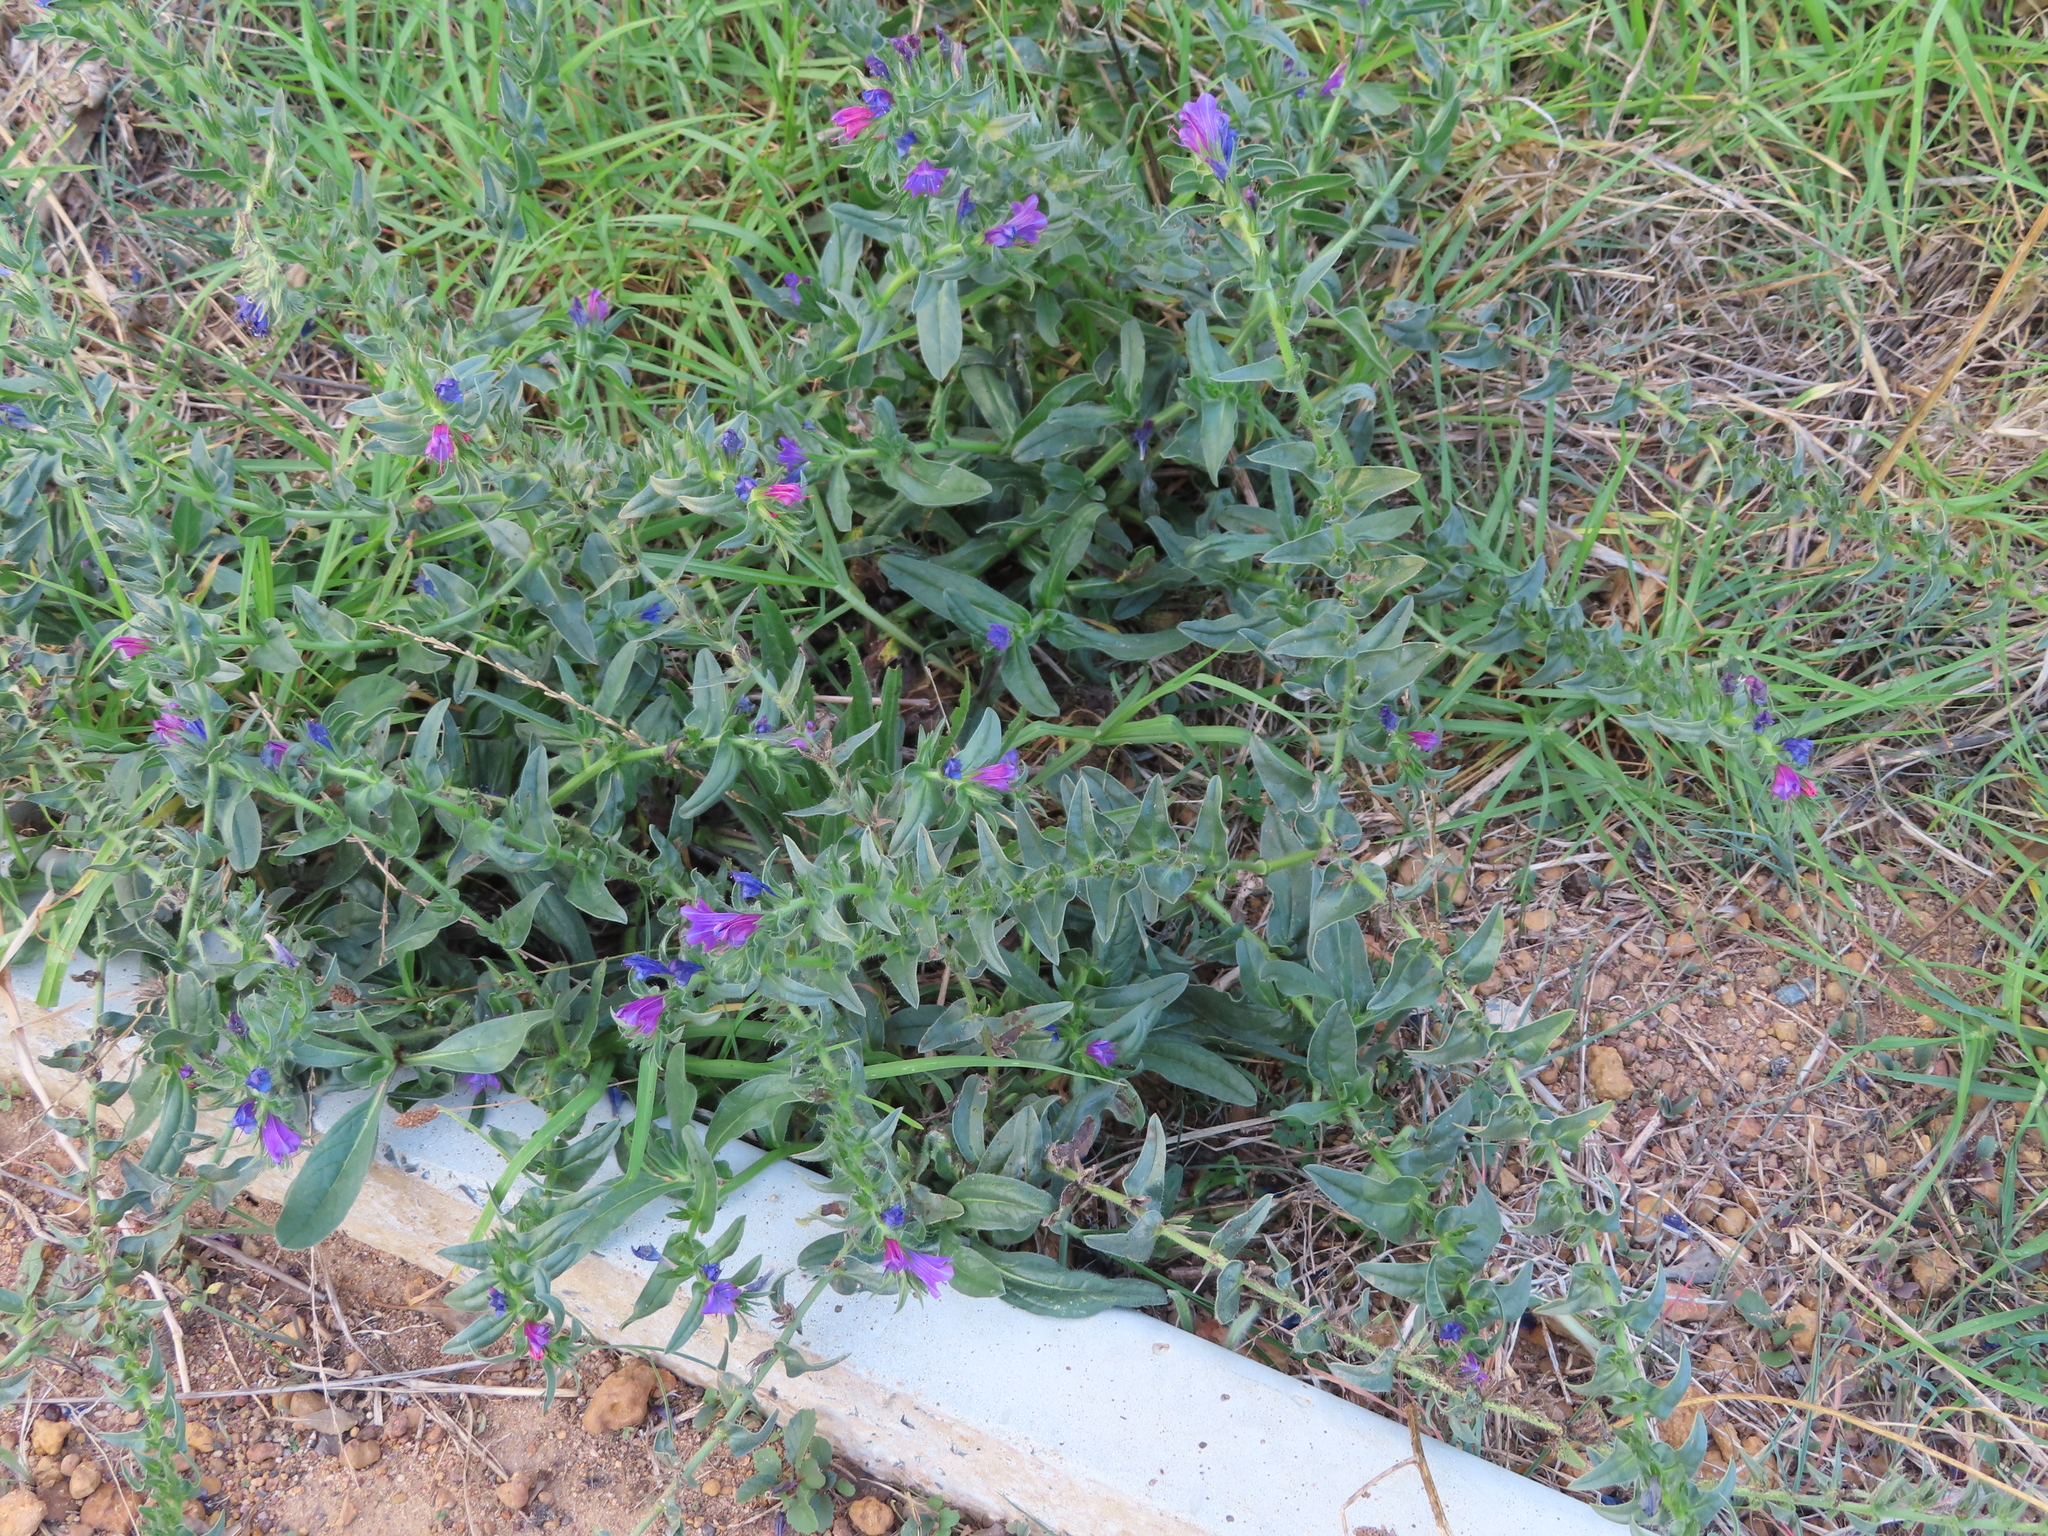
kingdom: Plantae
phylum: Tracheophyta
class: Magnoliopsida
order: Boraginales
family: Boraginaceae
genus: Echium
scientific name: Echium plantagineum
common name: Purple viper's-bugloss
